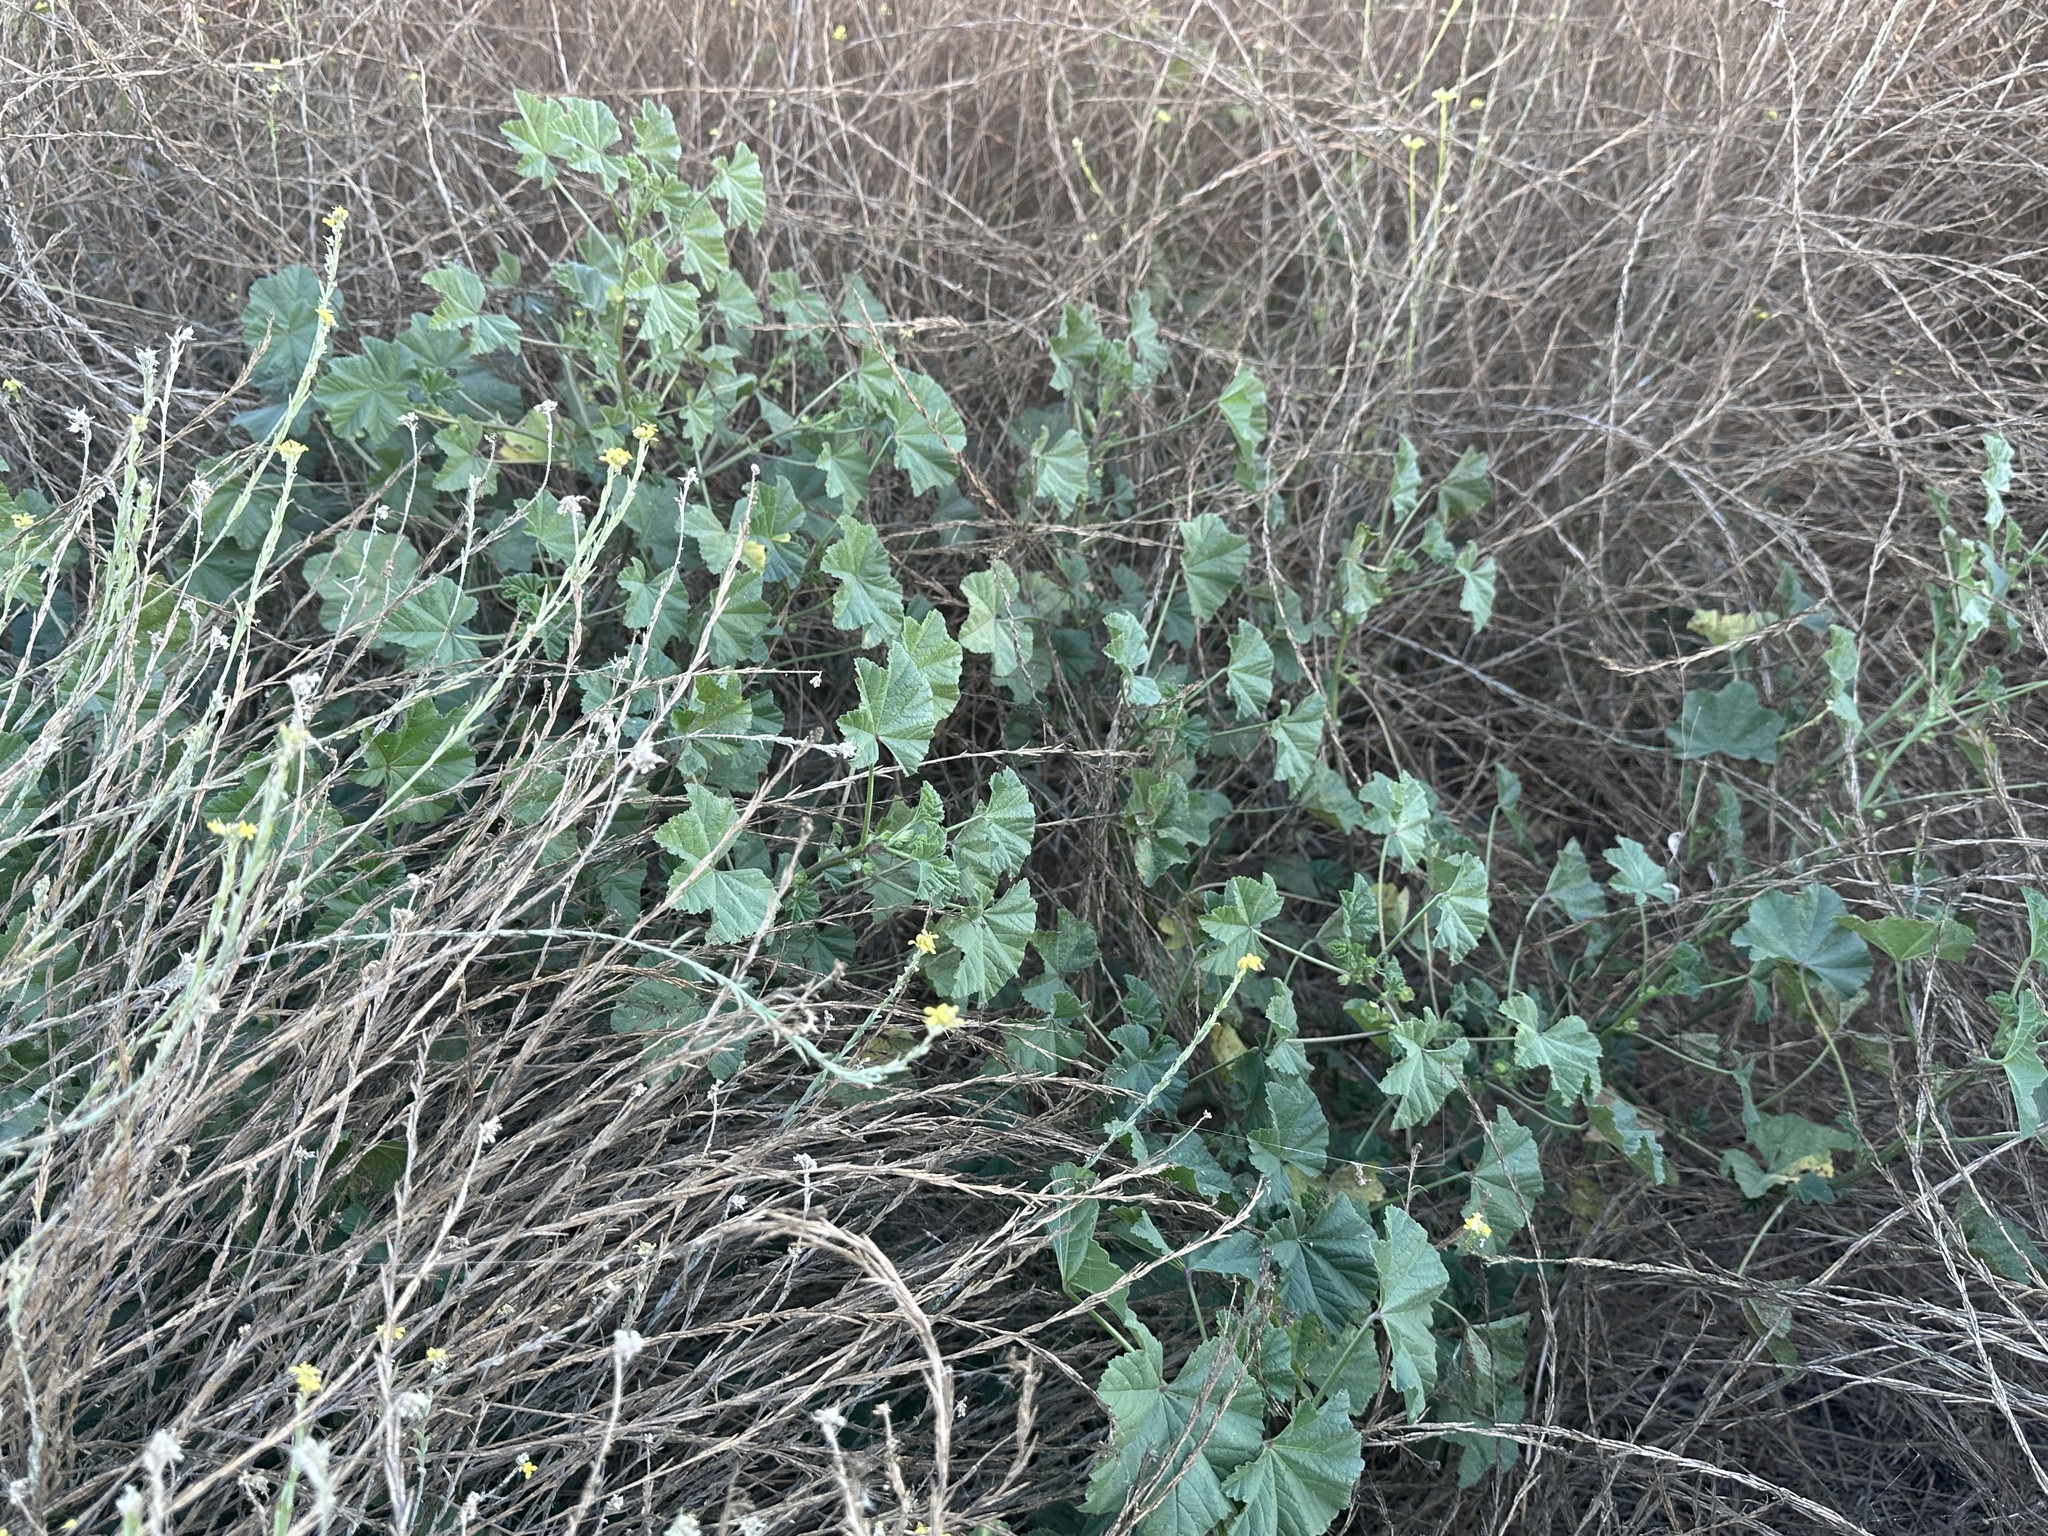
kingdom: Plantae
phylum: Tracheophyta
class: Magnoliopsida
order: Malvales
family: Malvaceae
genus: Malva
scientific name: Malva parviflora
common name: Least mallow
